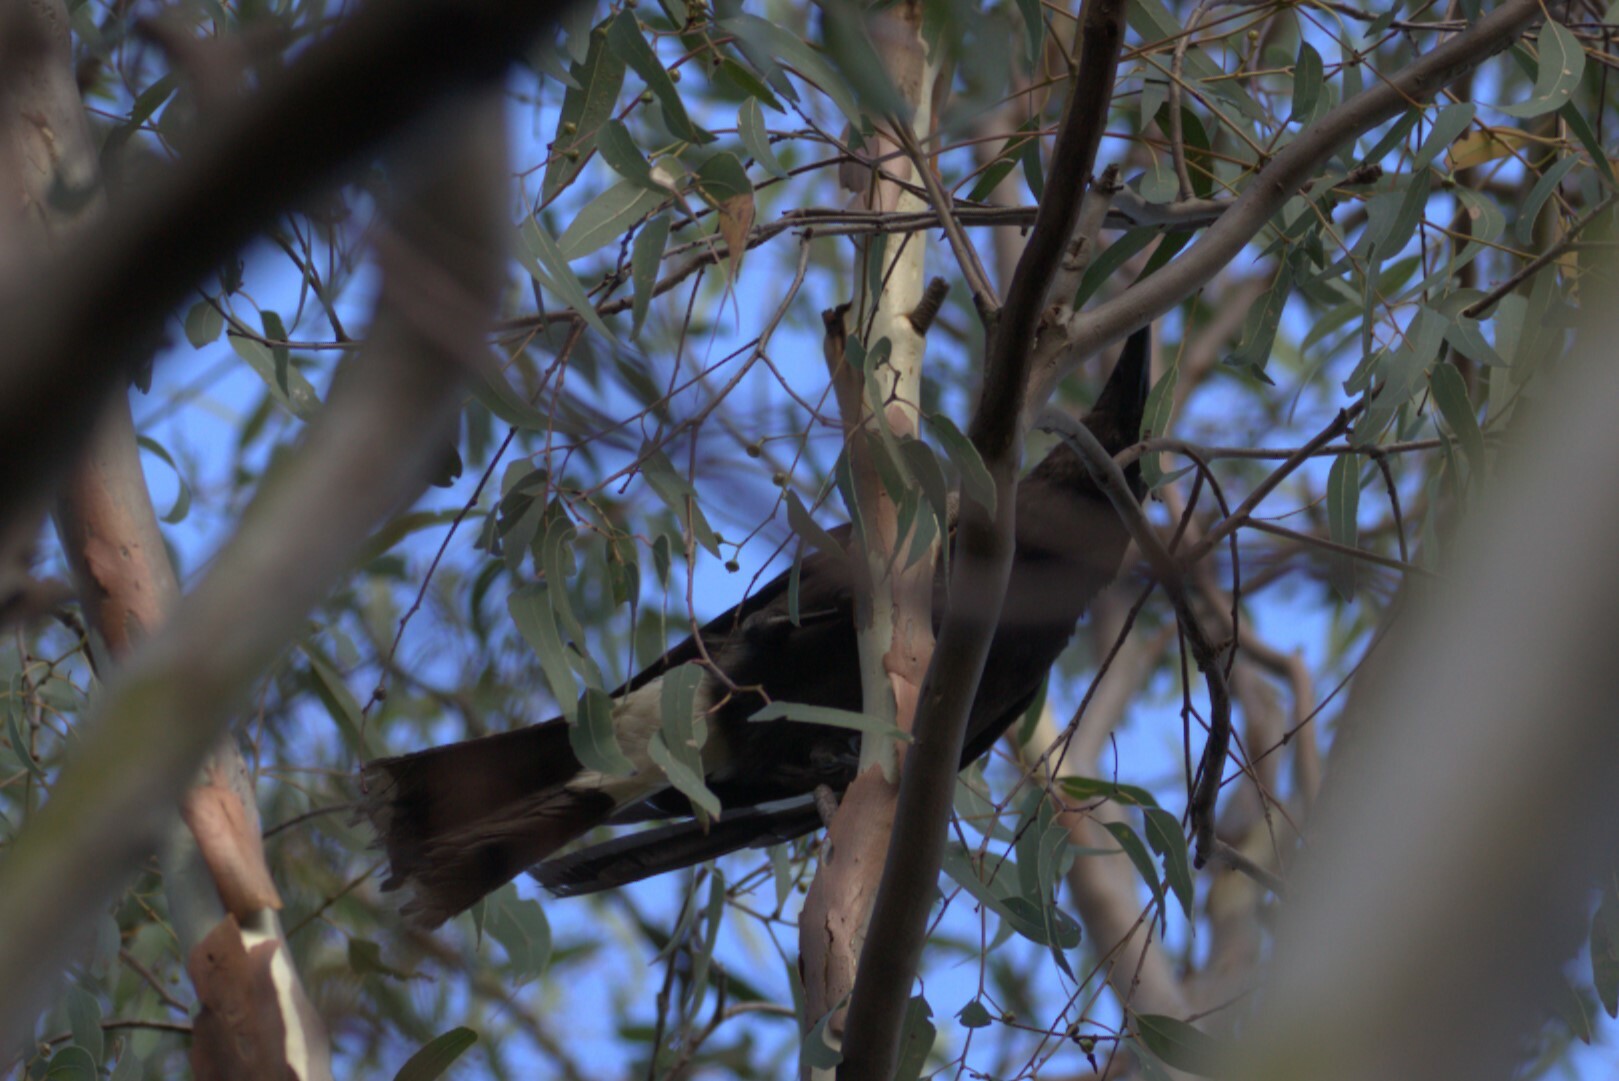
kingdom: Animalia
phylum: Chordata
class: Aves
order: Passeriformes
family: Cracticidae
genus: Strepera
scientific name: Strepera graculina
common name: Pied currawong
